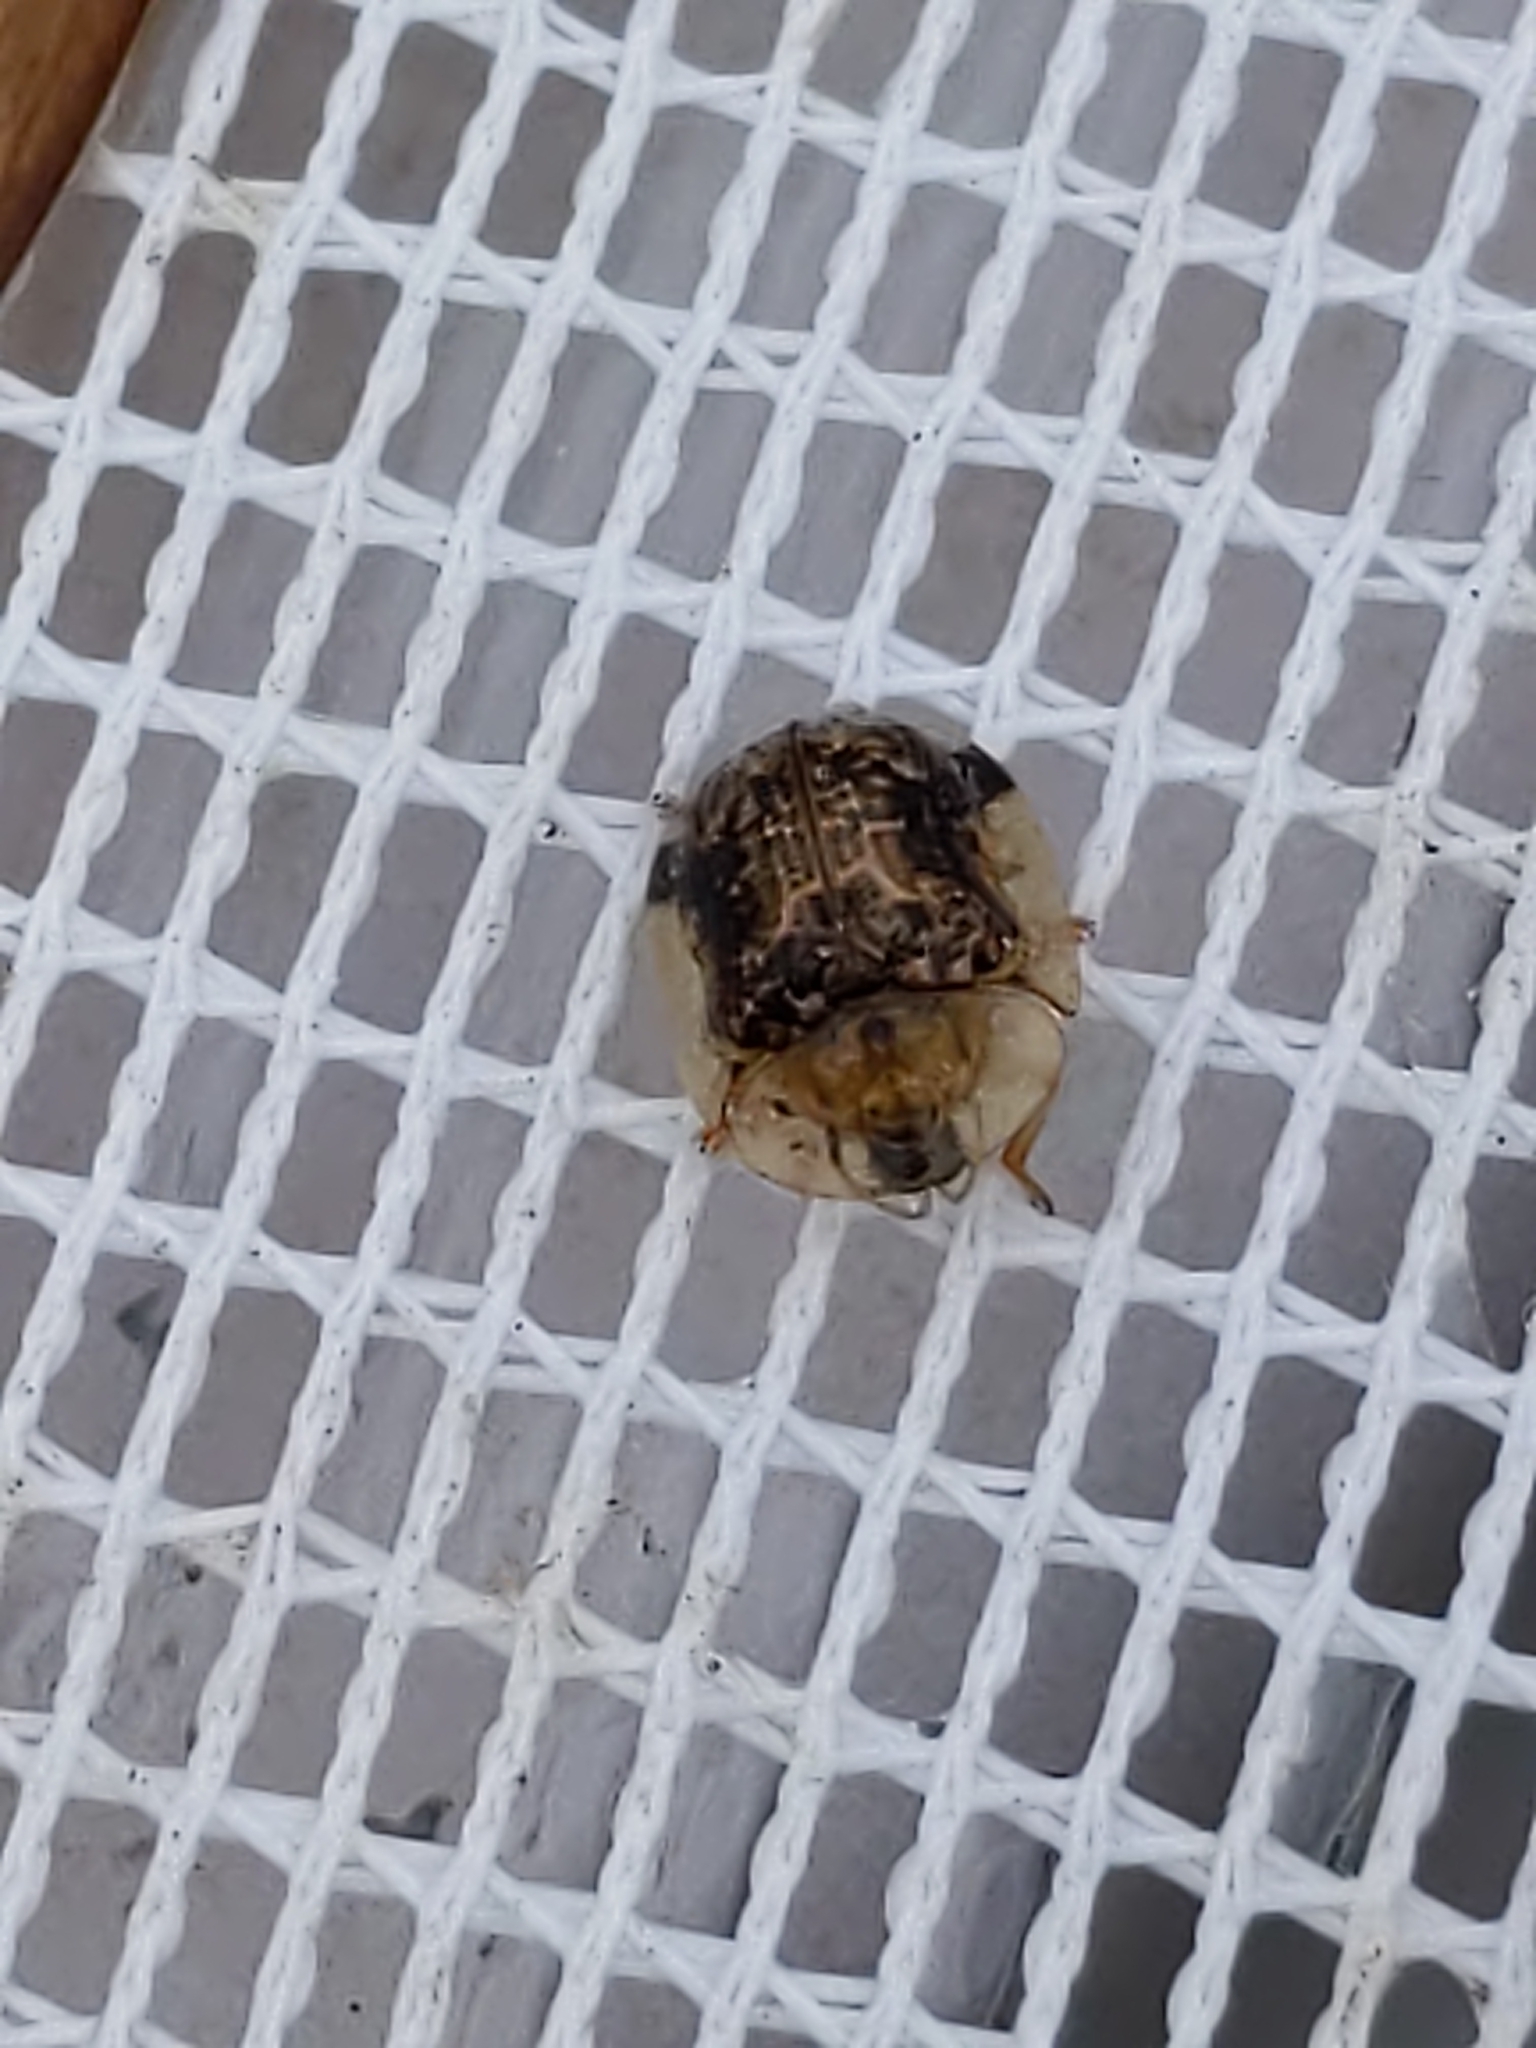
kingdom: Animalia
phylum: Arthropoda
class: Insecta
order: Coleoptera
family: Chrysomelidae
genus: Cassida
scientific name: Cassida piperata
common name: Small tortoise beetle
